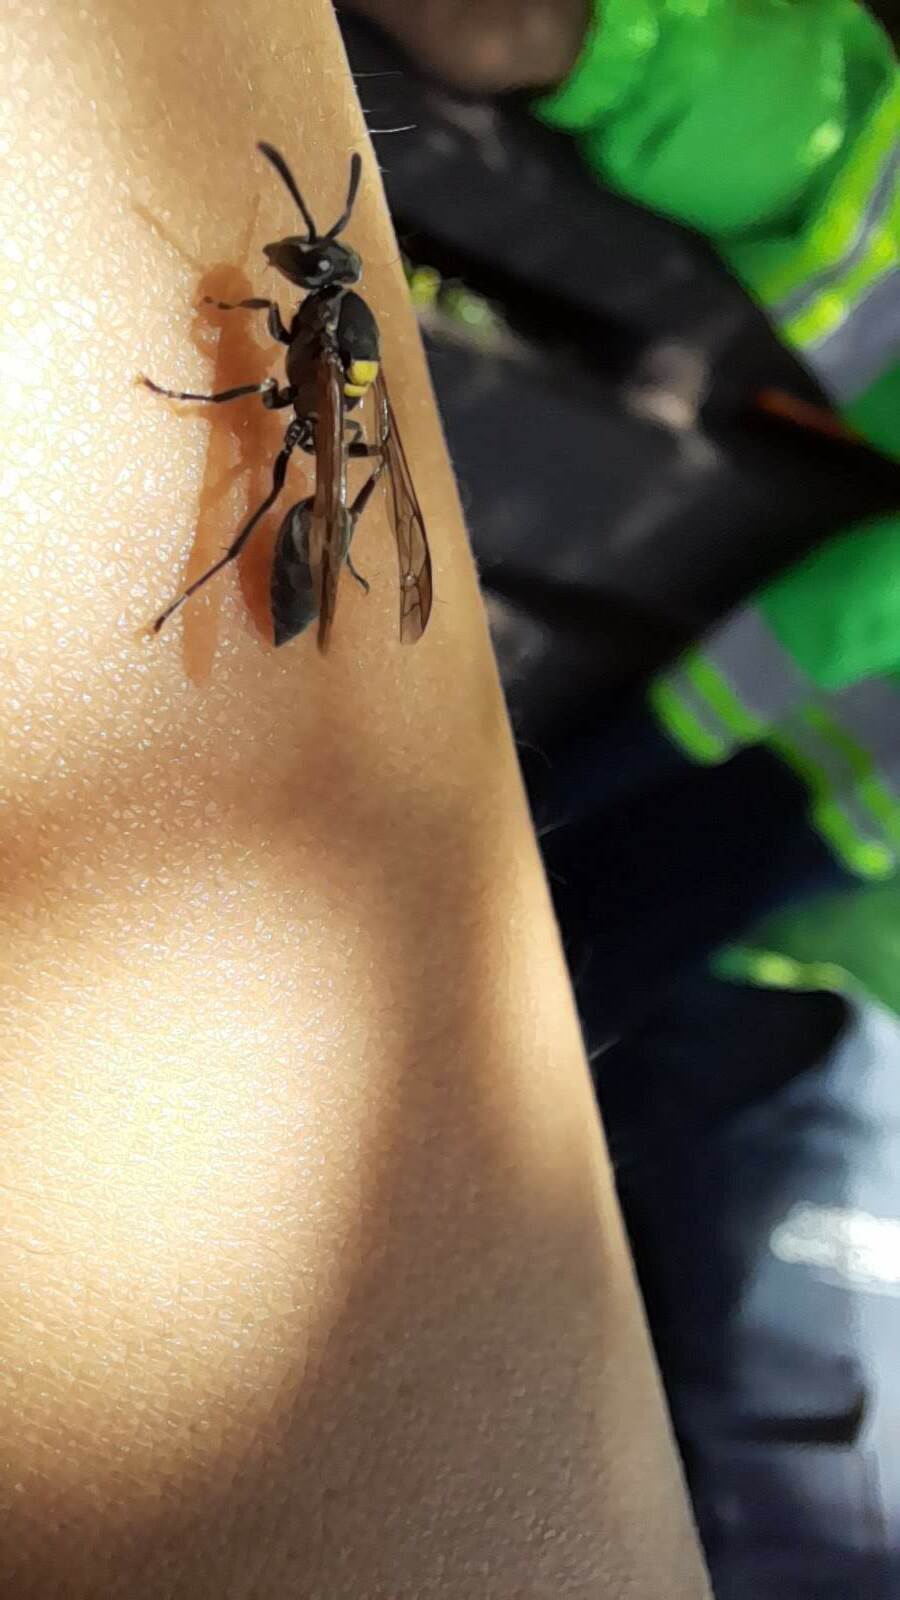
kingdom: Animalia
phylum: Arthropoda
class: Insecta
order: Hymenoptera
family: Eumenidae
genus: Polybia
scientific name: Polybia scutellaris
